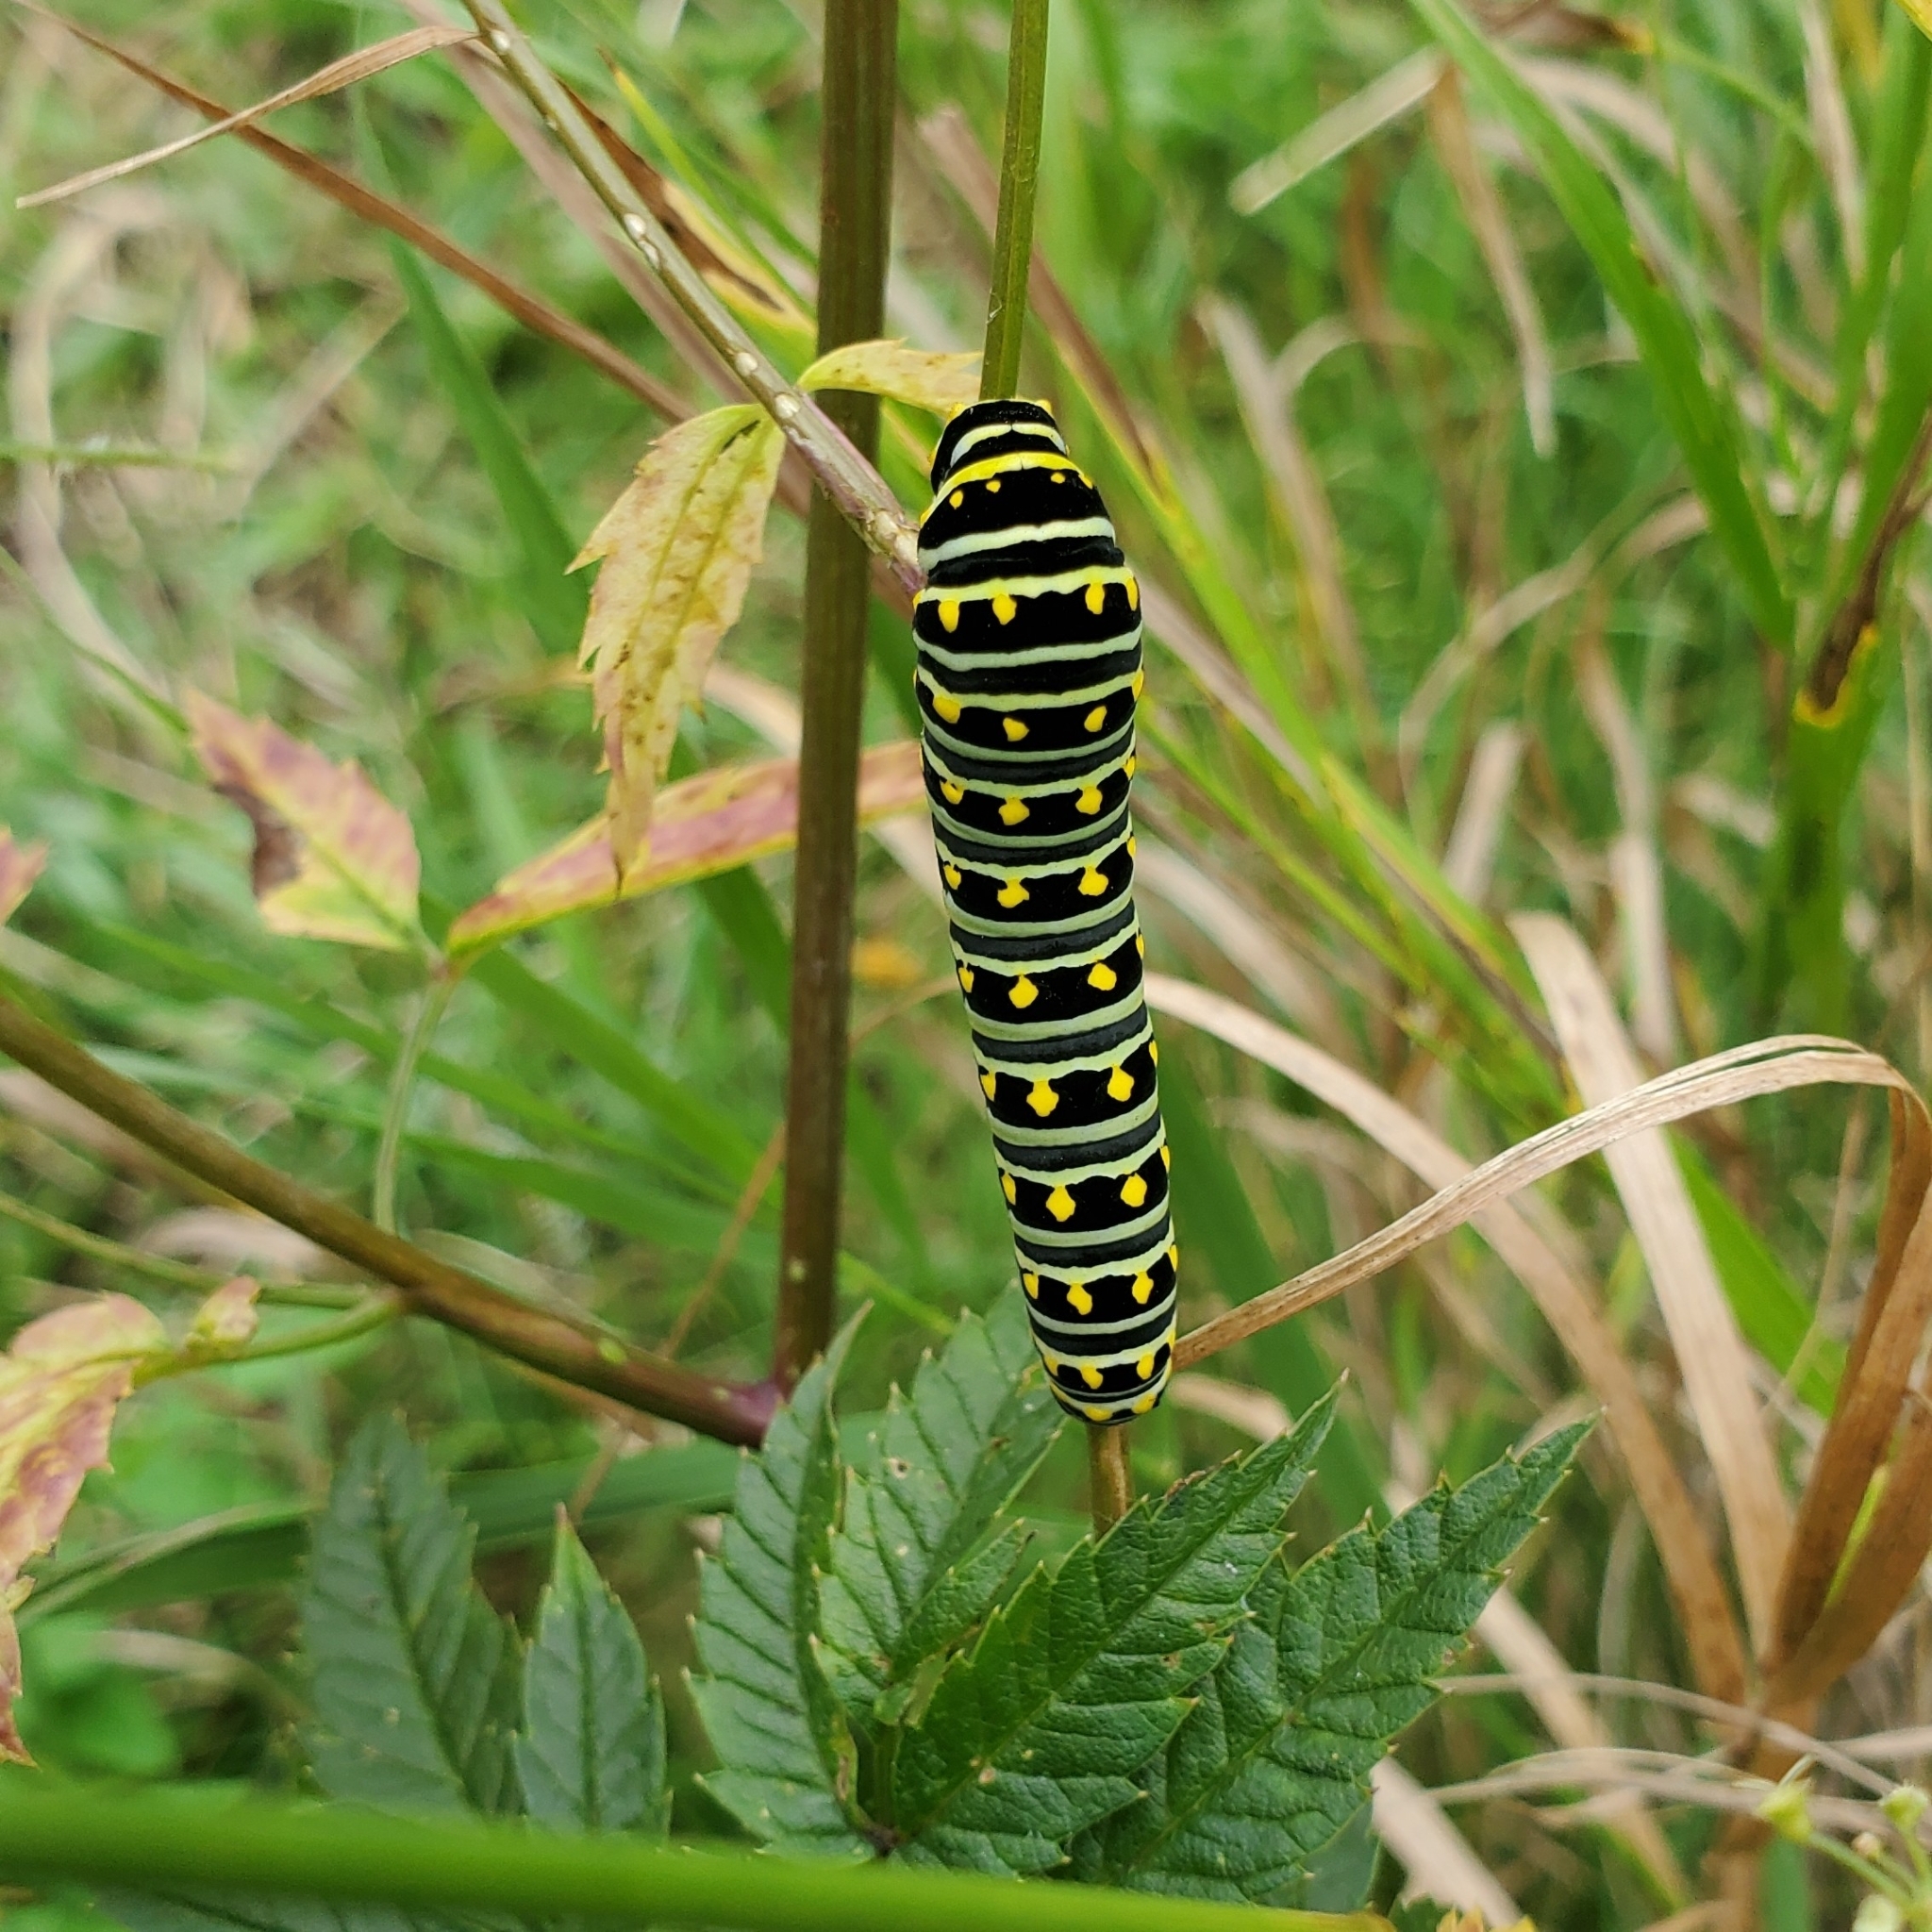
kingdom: Animalia
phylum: Arthropoda
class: Insecta
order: Lepidoptera
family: Papilionidae
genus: Papilio
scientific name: Papilio polyxenes
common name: Black swallowtail
